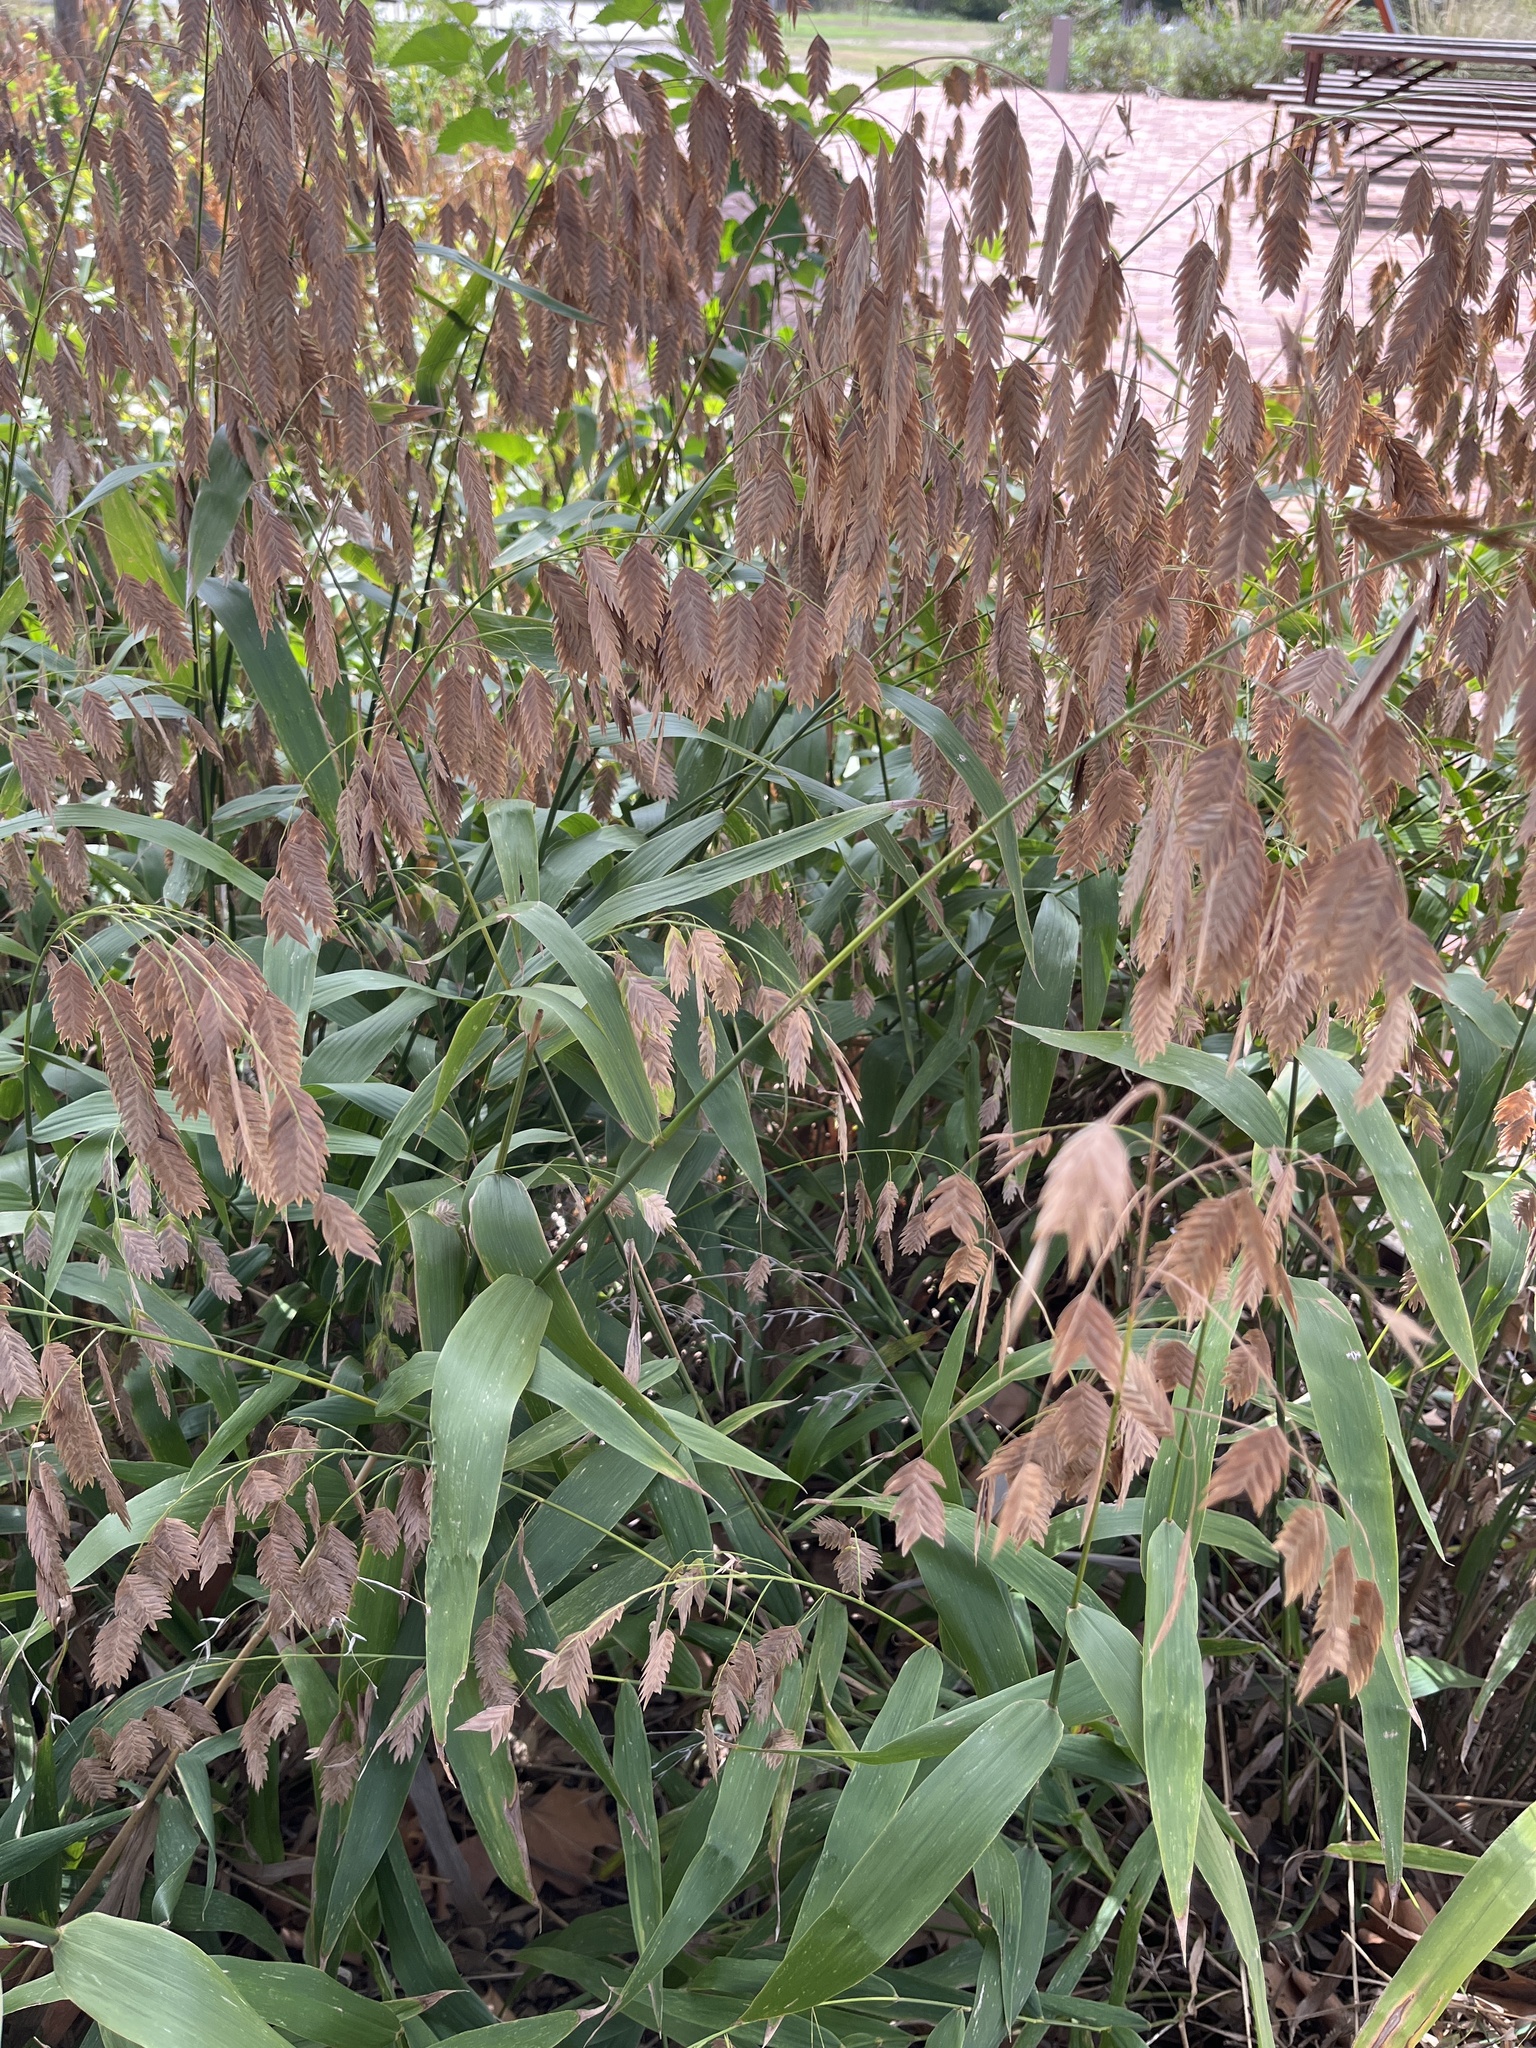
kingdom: Plantae
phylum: Tracheophyta
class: Liliopsida
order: Poales
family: Poaceae
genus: Chasmanthium
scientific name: Chasmanthium latifolium
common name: Broad-leaved chasmanthium
